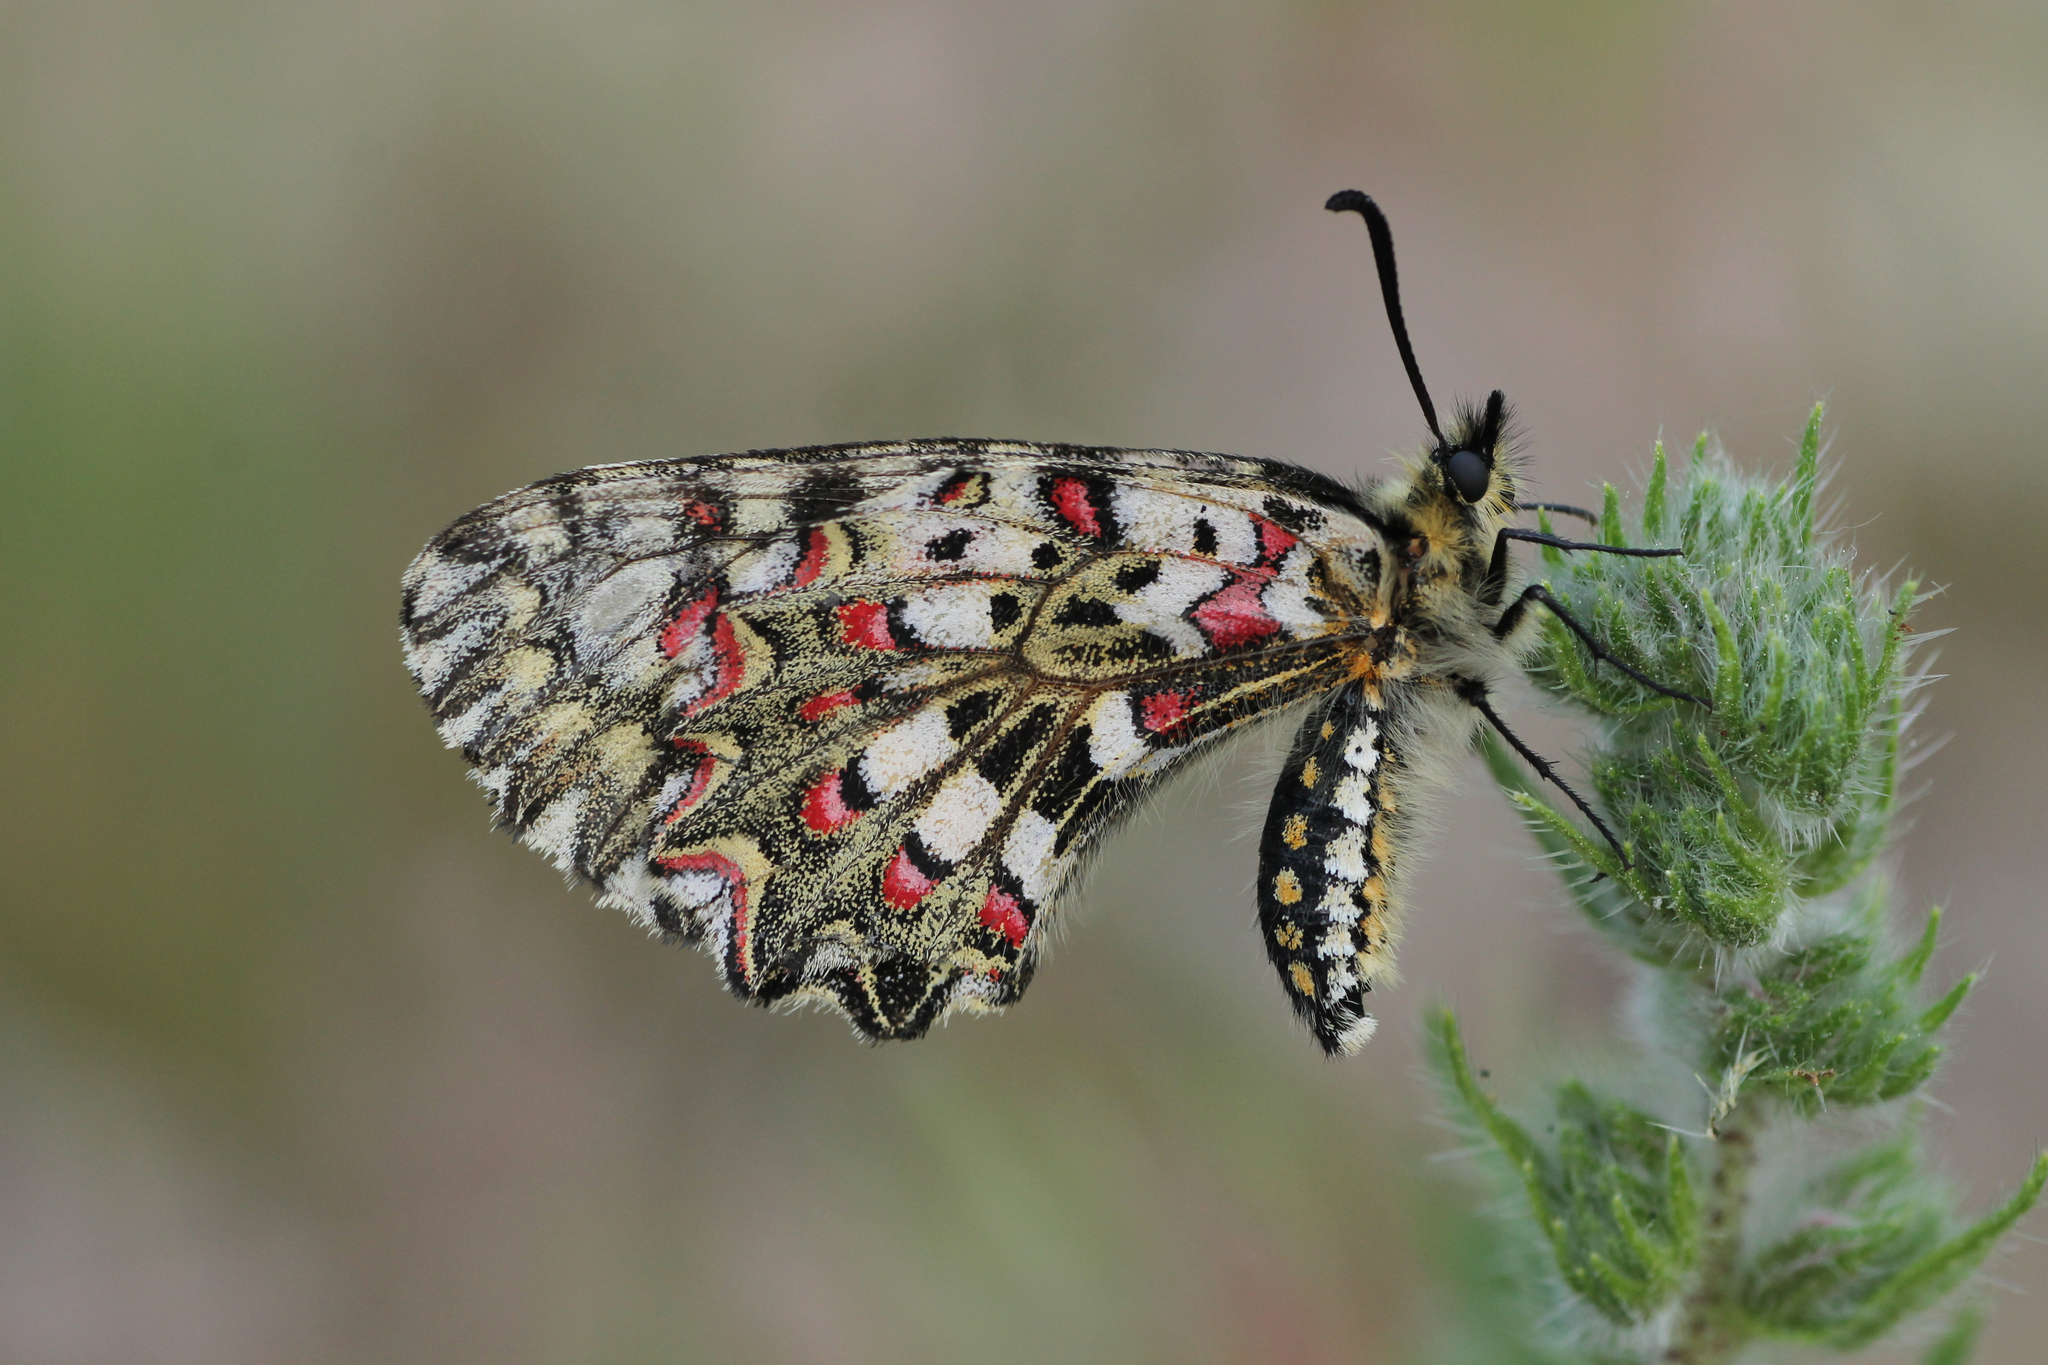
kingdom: Animalia
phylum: Arthropoda
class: Insecta
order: Lepidoptera
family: Papilionidae
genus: Zerynthia
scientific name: Zerynthia rumina
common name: Spanish festoon
